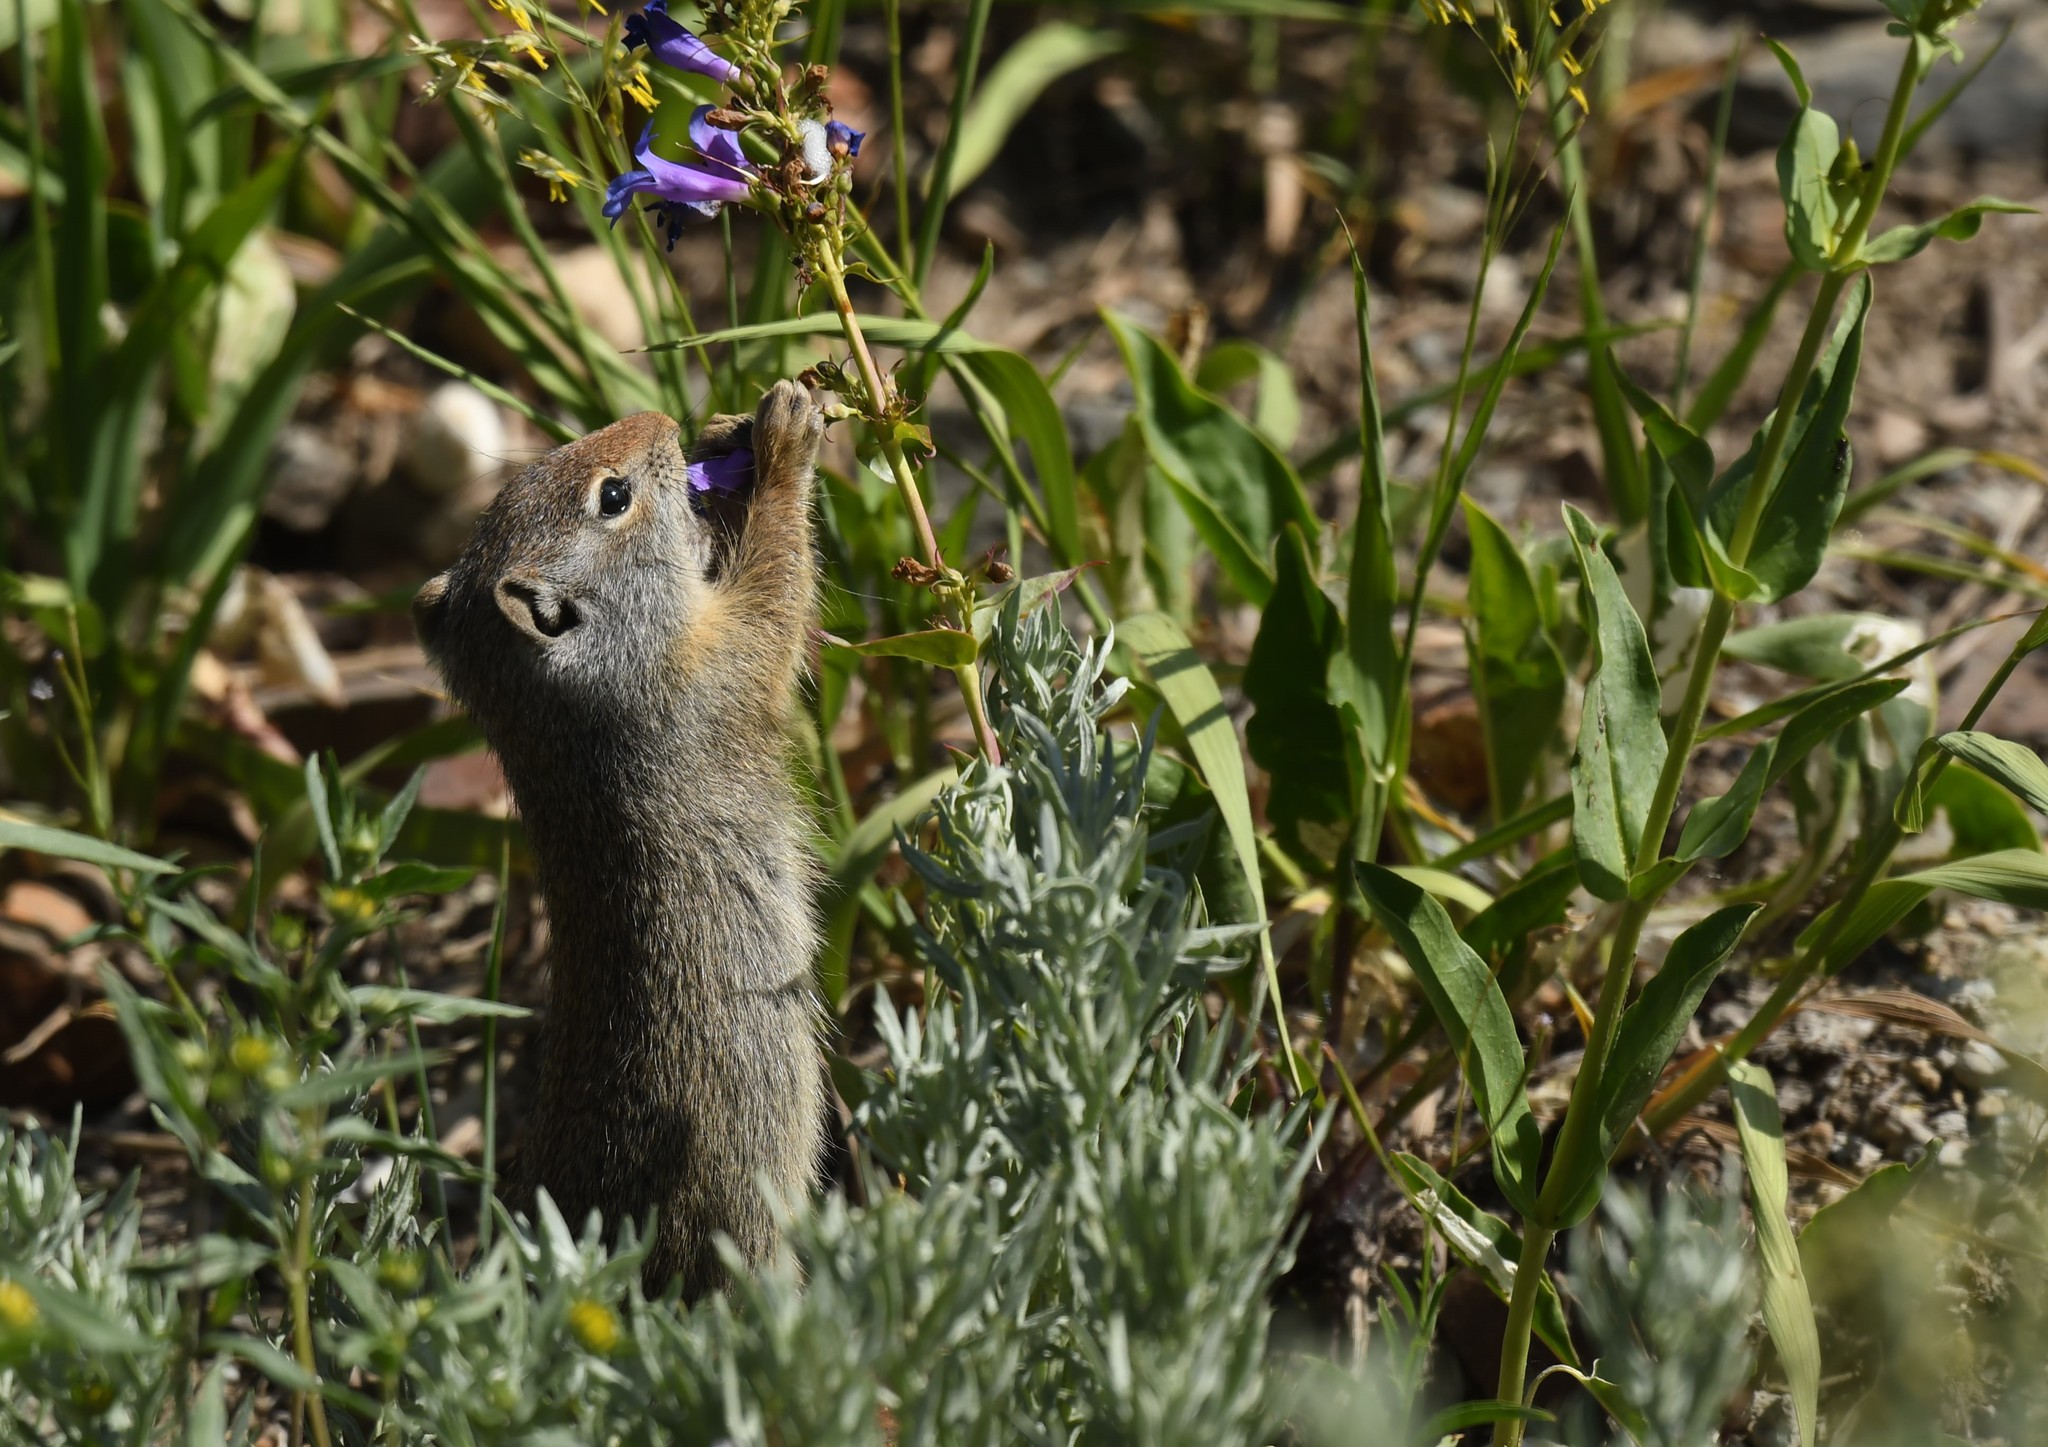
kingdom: Animalia
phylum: Chordata
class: Mammalia
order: Rodentia
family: Sciuridae
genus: Urocitellus
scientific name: Urocitellus armatus
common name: Uinta ground squirrel
